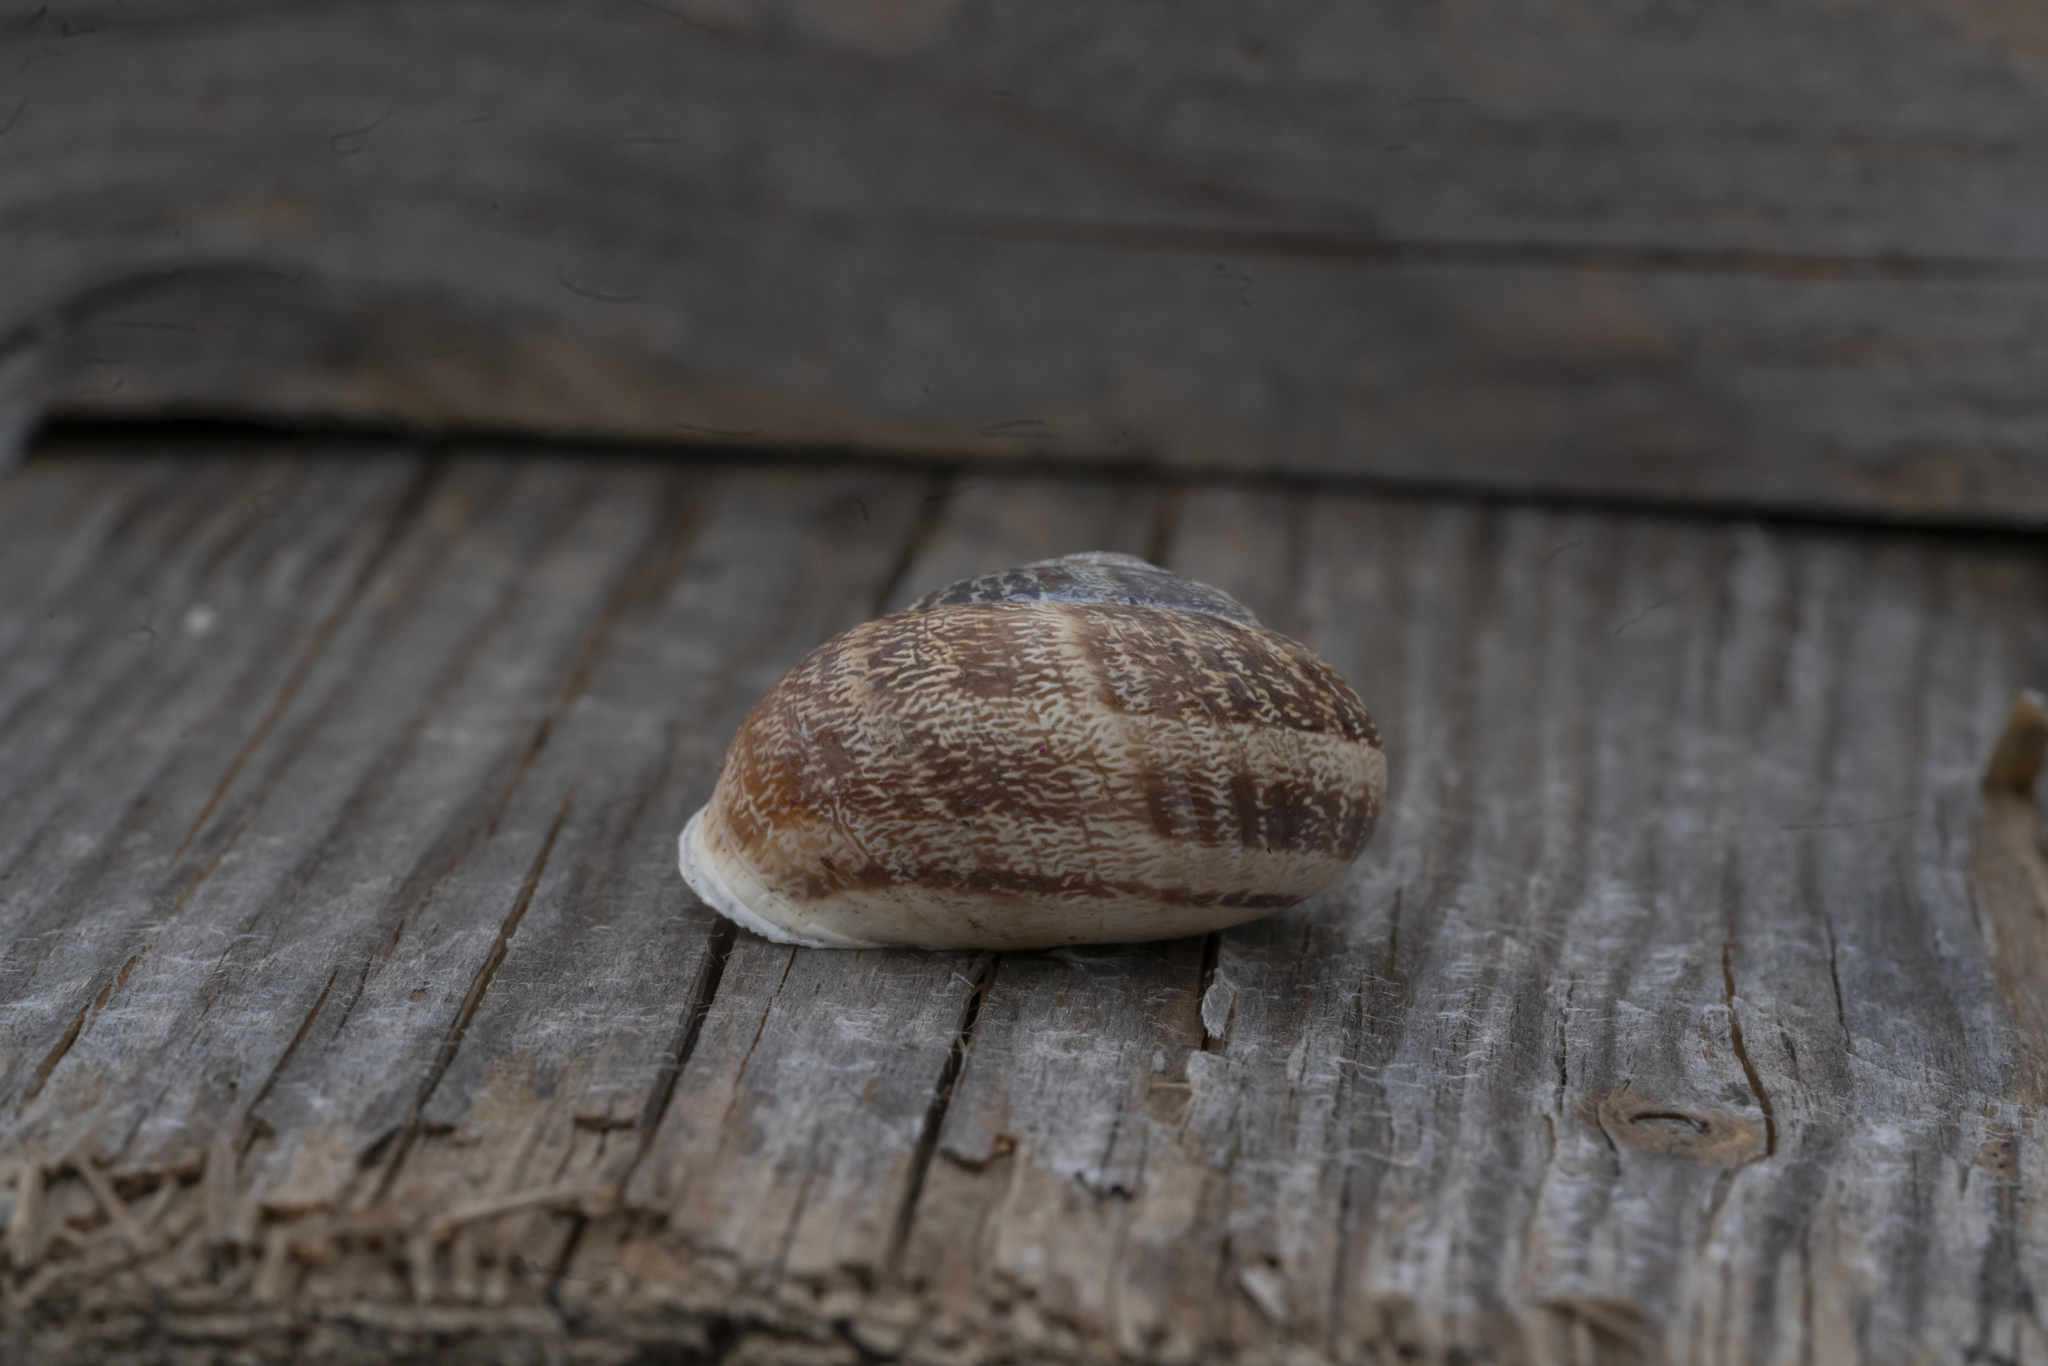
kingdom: Animalia
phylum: Mollusca
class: Gastropoda
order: Stylommatophora
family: Helicidae
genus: Eobania
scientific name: Eobania vermiculata
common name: Chocolateband snail
